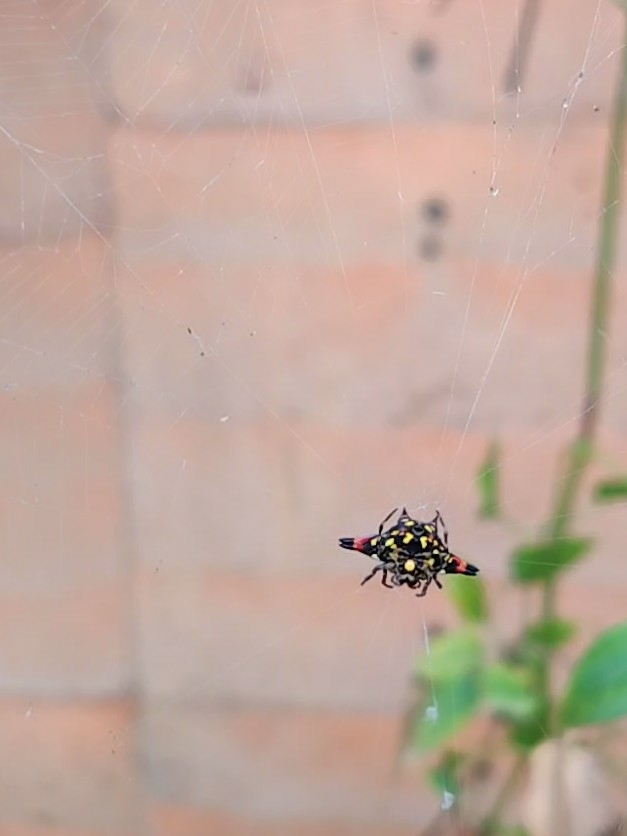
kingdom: Animalia
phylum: Arthropoda
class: Arachnida
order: Araneae
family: Araneidae
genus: Gasteracantha
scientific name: Gasteracantha geminata
